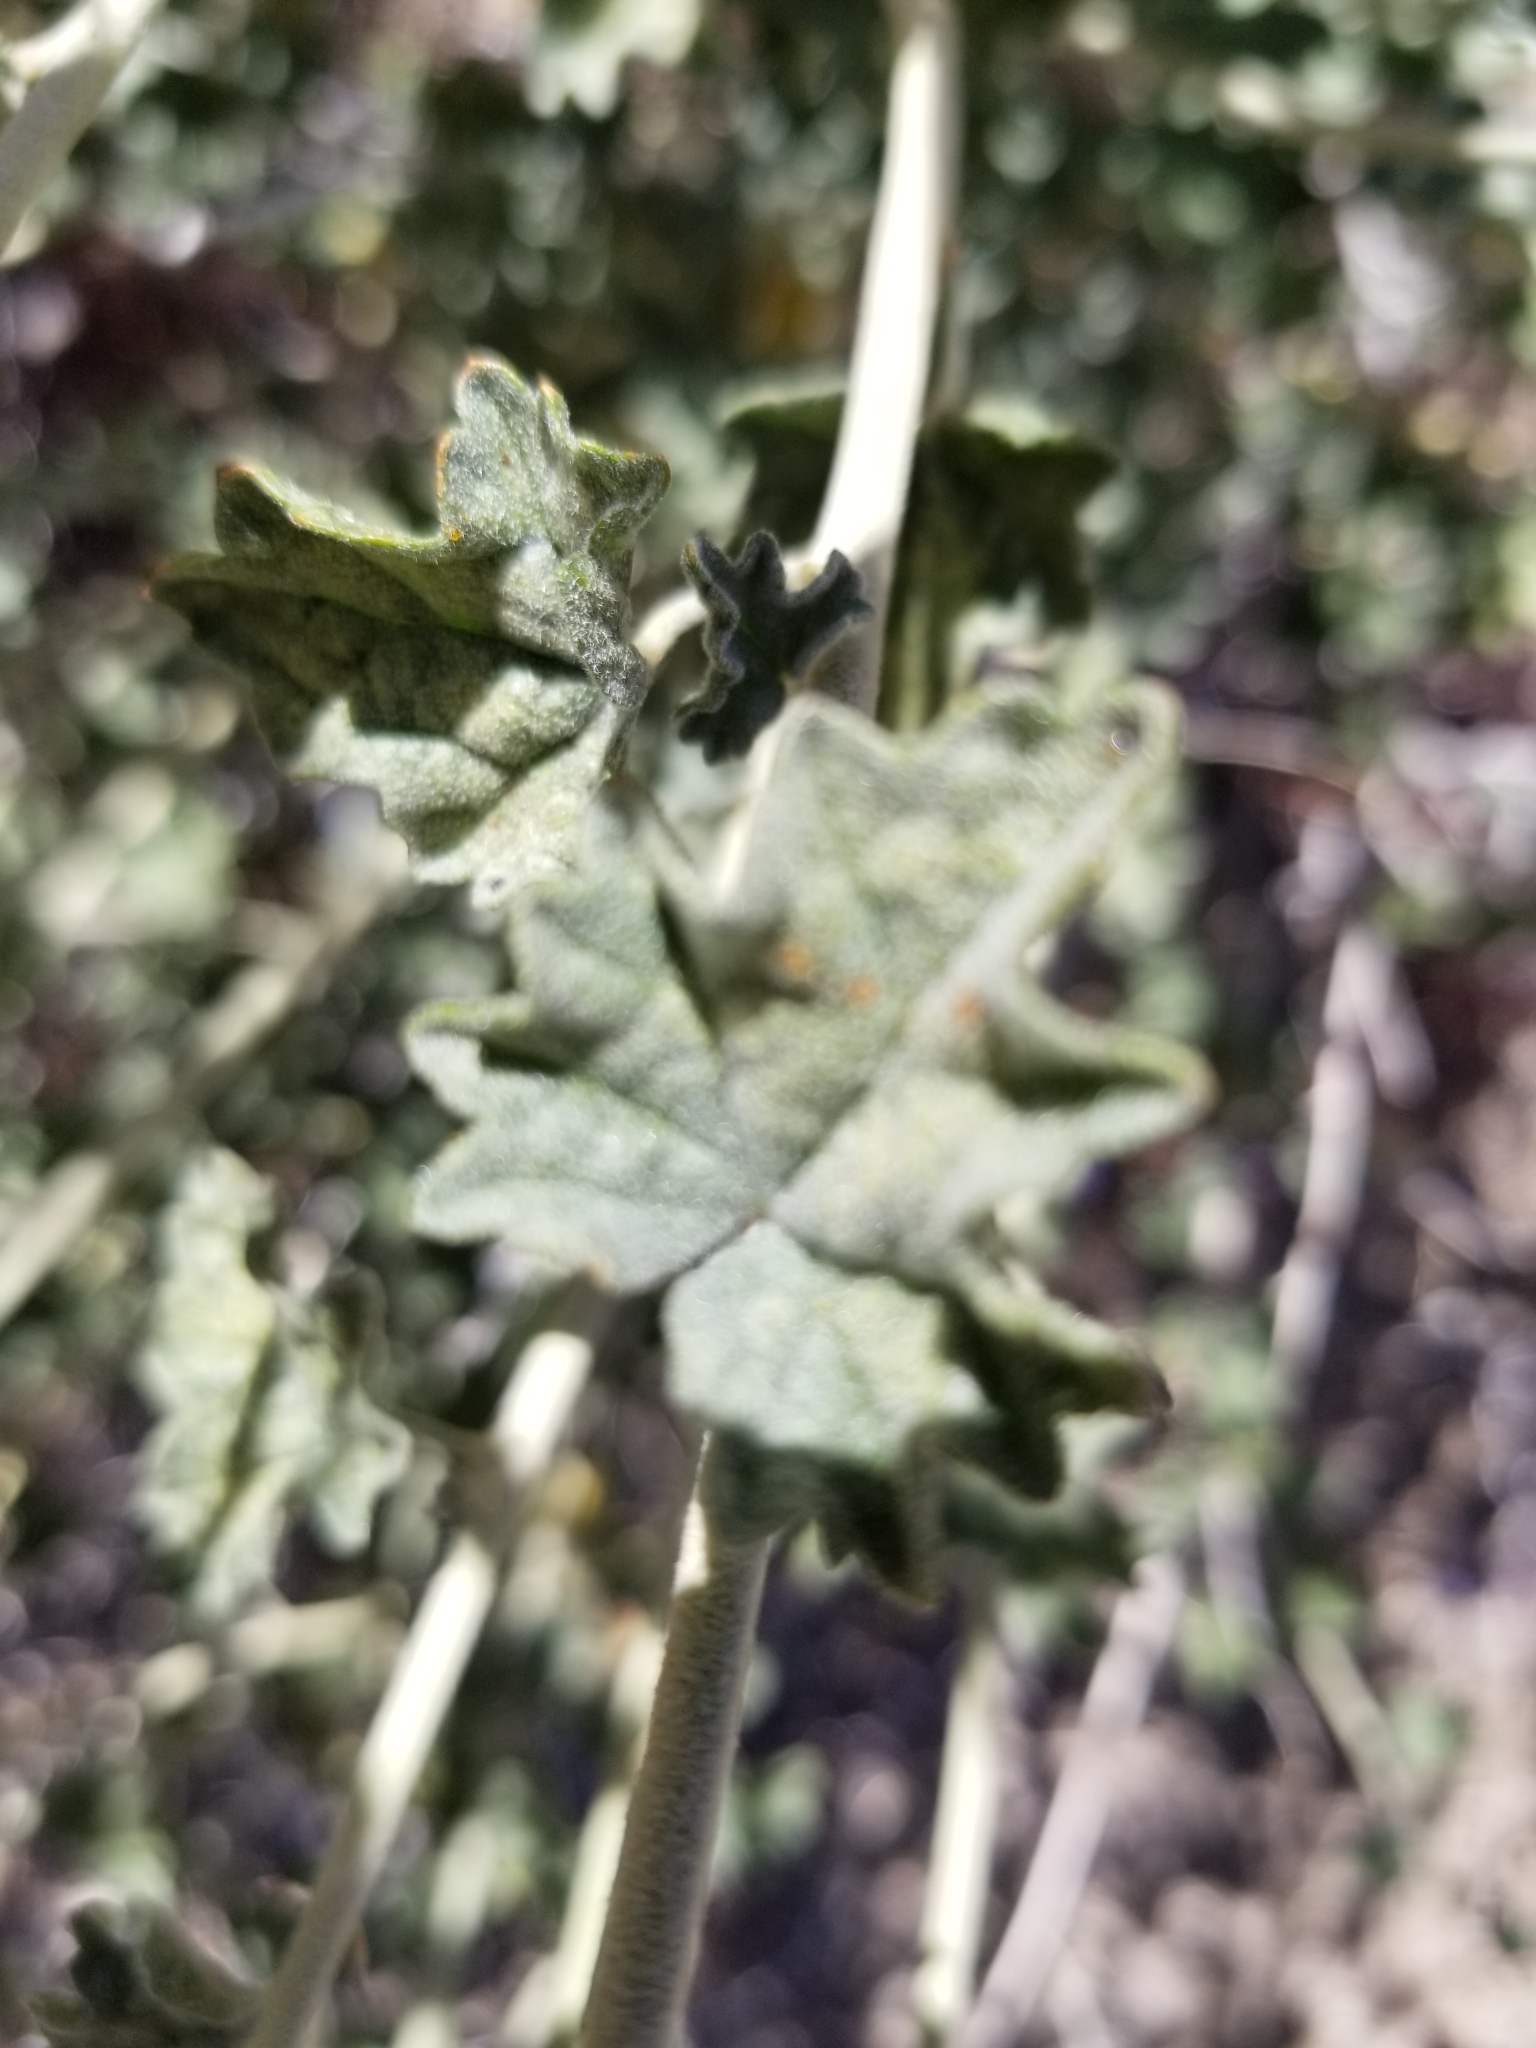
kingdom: Plantae
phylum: Tracheophyta
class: Magnoliopsida
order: Malvales
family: Malvaceae
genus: Sphaeralcea
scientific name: Sphaeralcea ambigua
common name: Apricot globe-mallow
